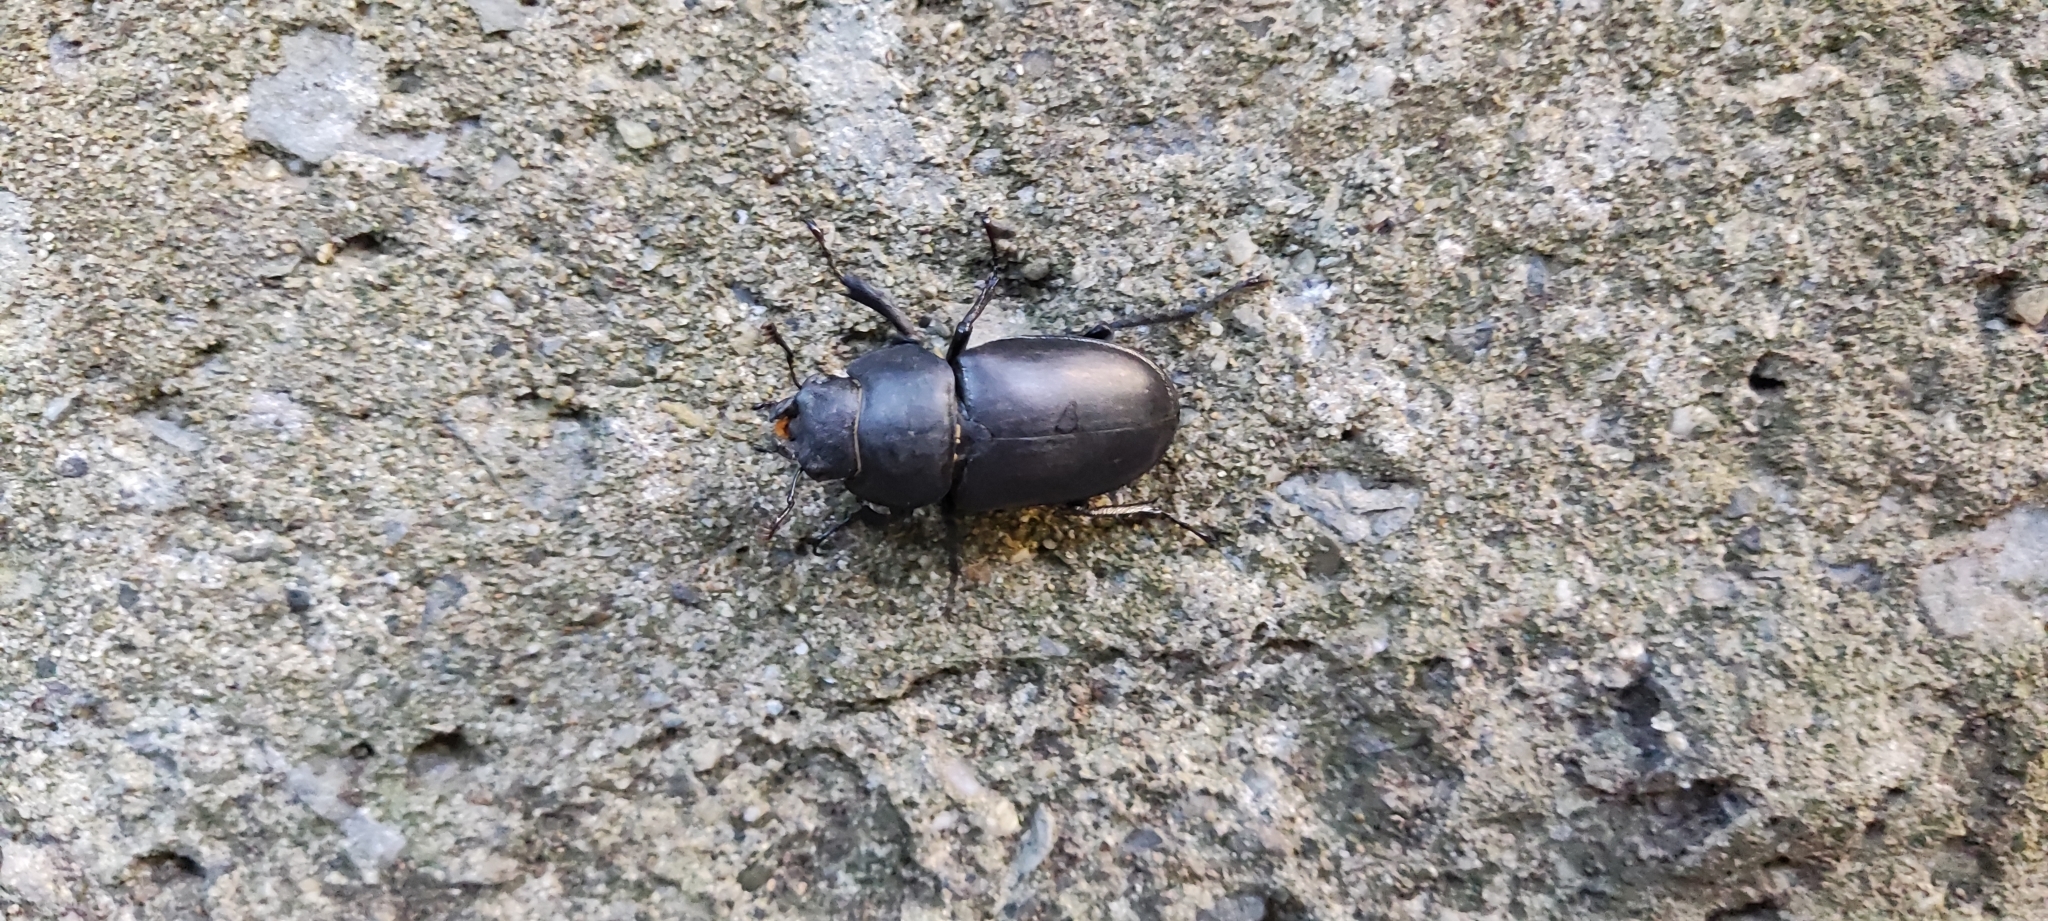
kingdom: Animalia
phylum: Arthropoda
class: Insecta
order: Coleoptera
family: Lucanidae
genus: Lucanus
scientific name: Lucanus cervus
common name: Stag beetle
